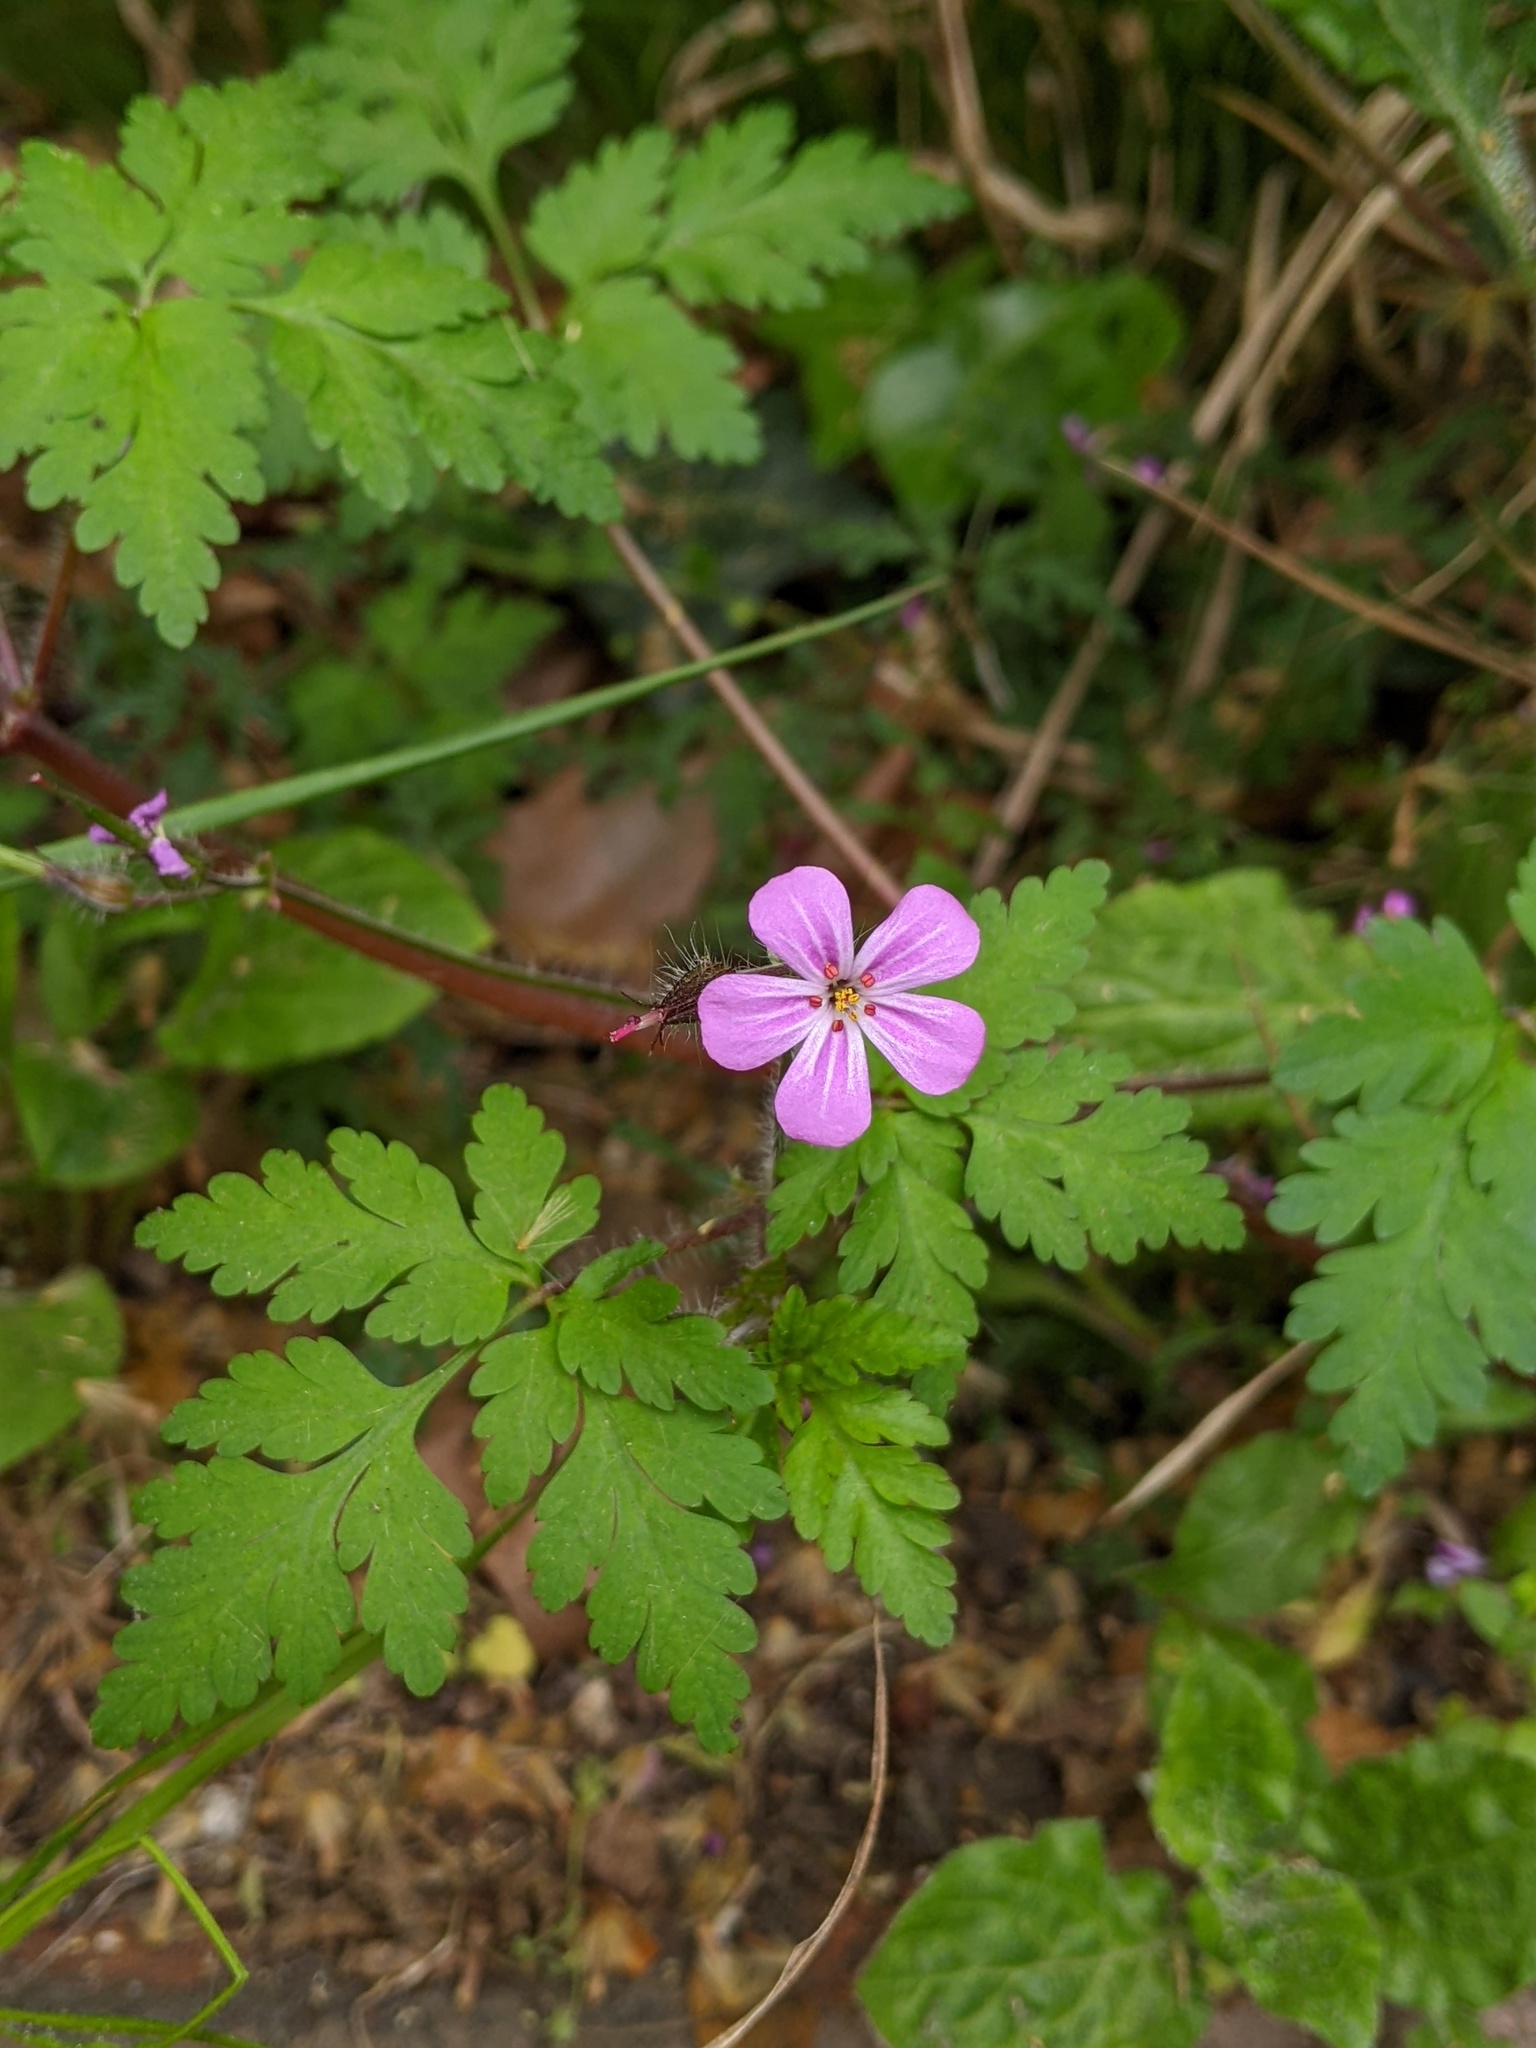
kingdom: Plantae
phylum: Tracheophyta
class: Magnoliopsida
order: Geraniales
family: Geraniaceae
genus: Geranium
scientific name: Geranium robertianum
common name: Herb-robert
